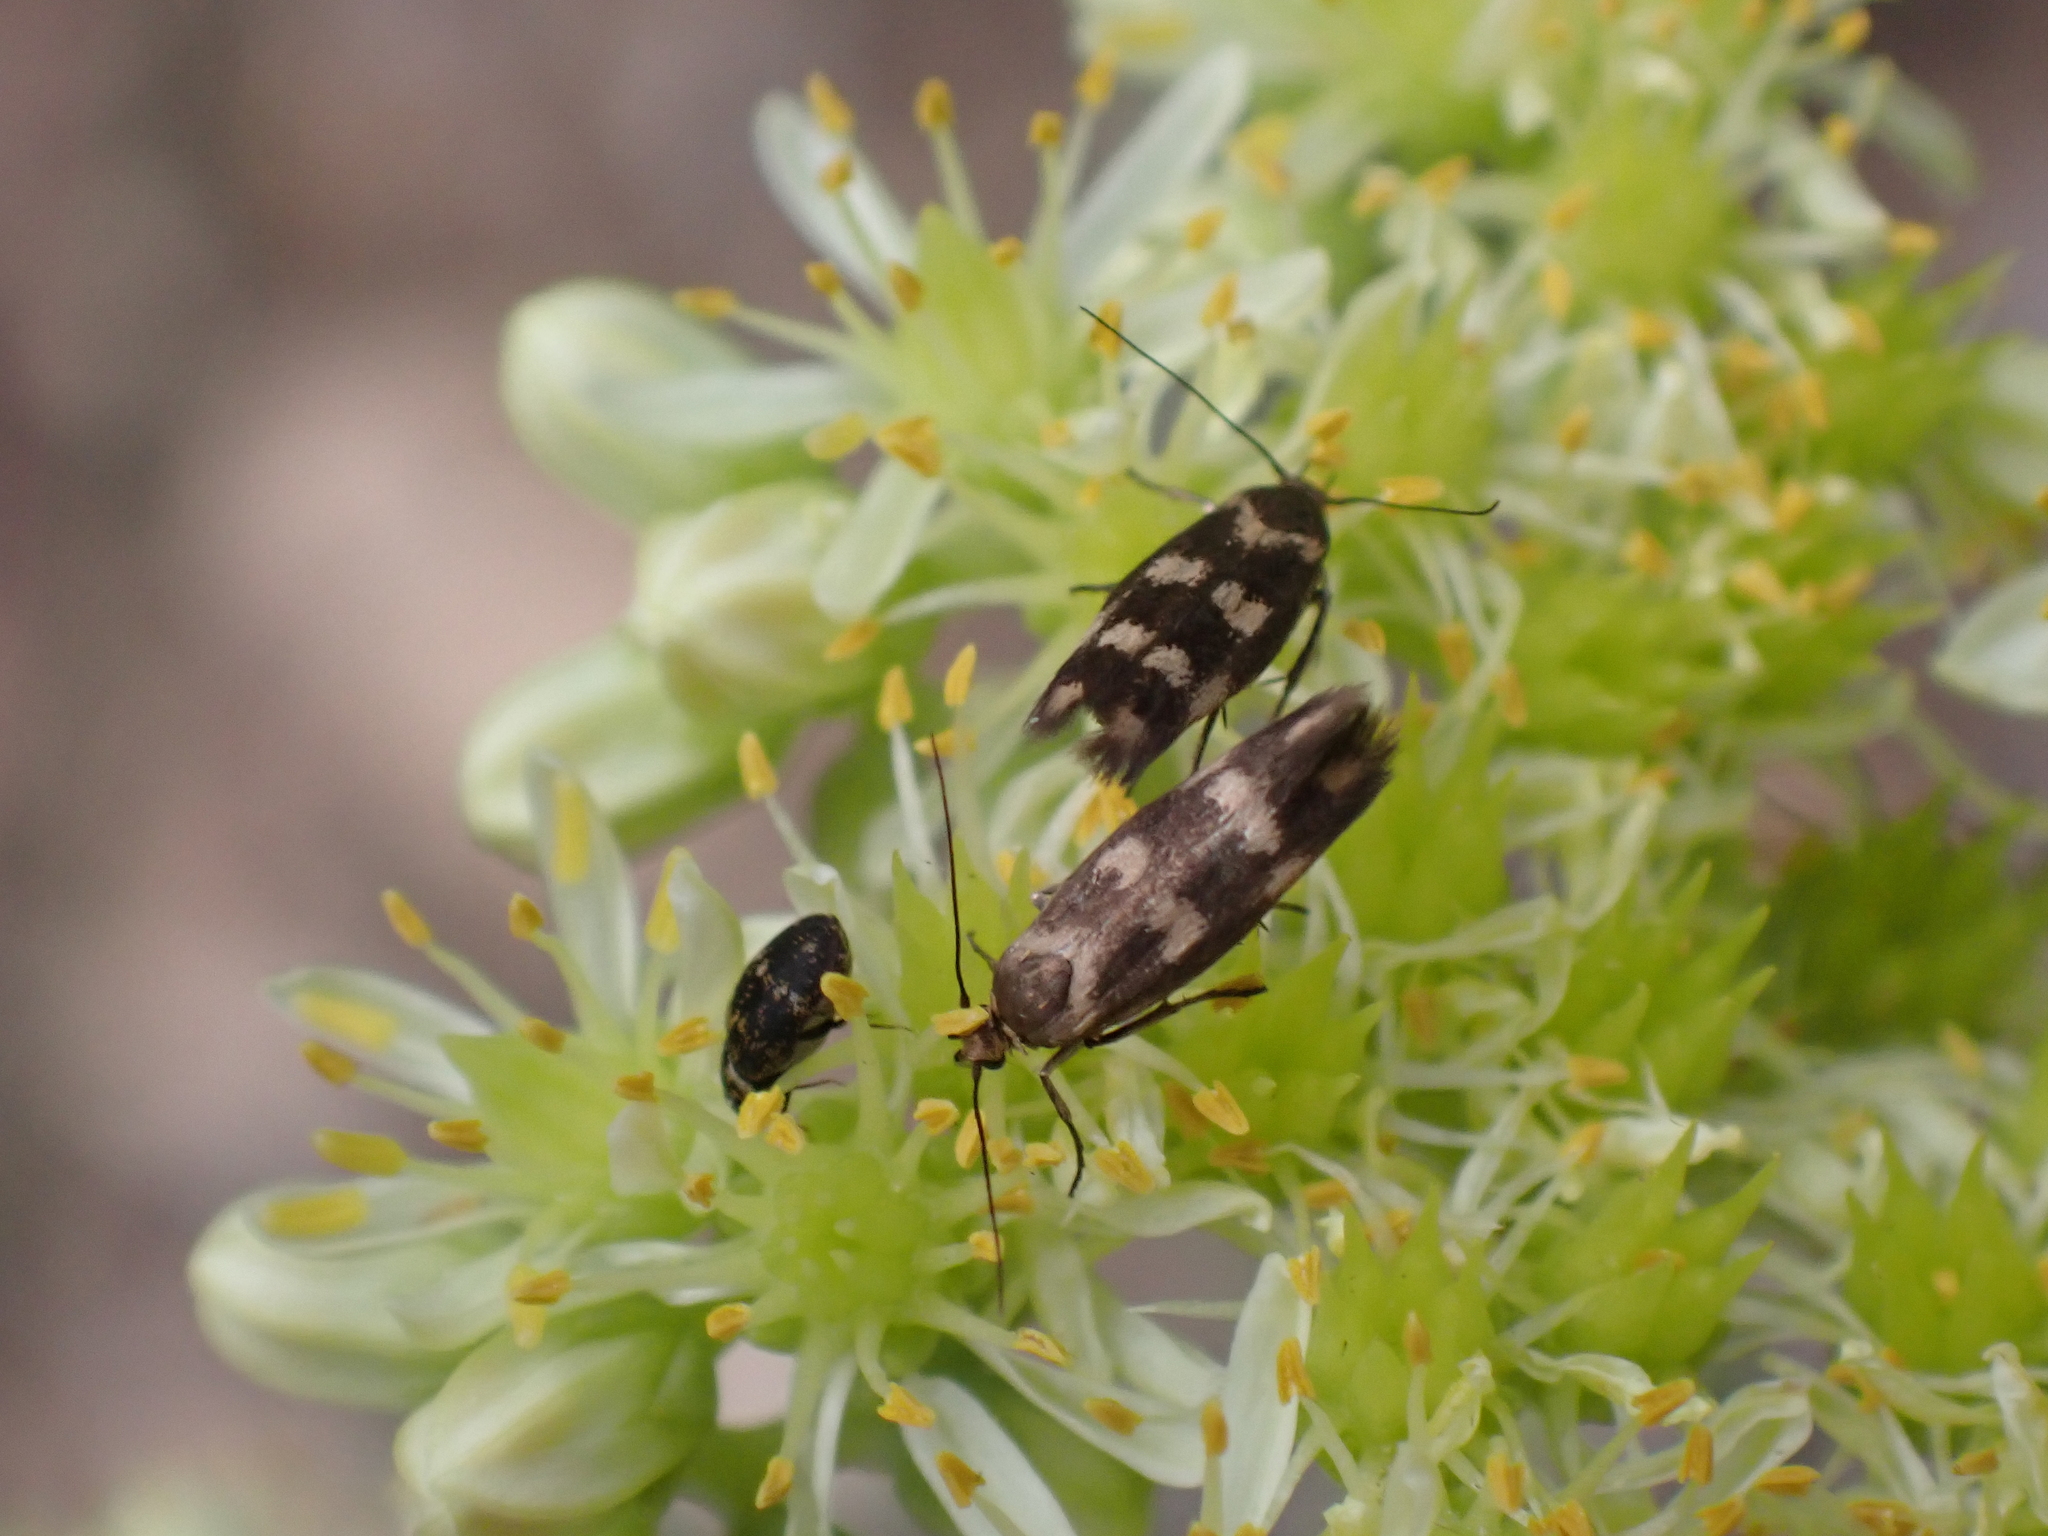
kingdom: Animalia
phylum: Arthropoda
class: Insecta
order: Lepidoptera
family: Scythrididae
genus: Scythris
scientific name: Scythris scopolella
